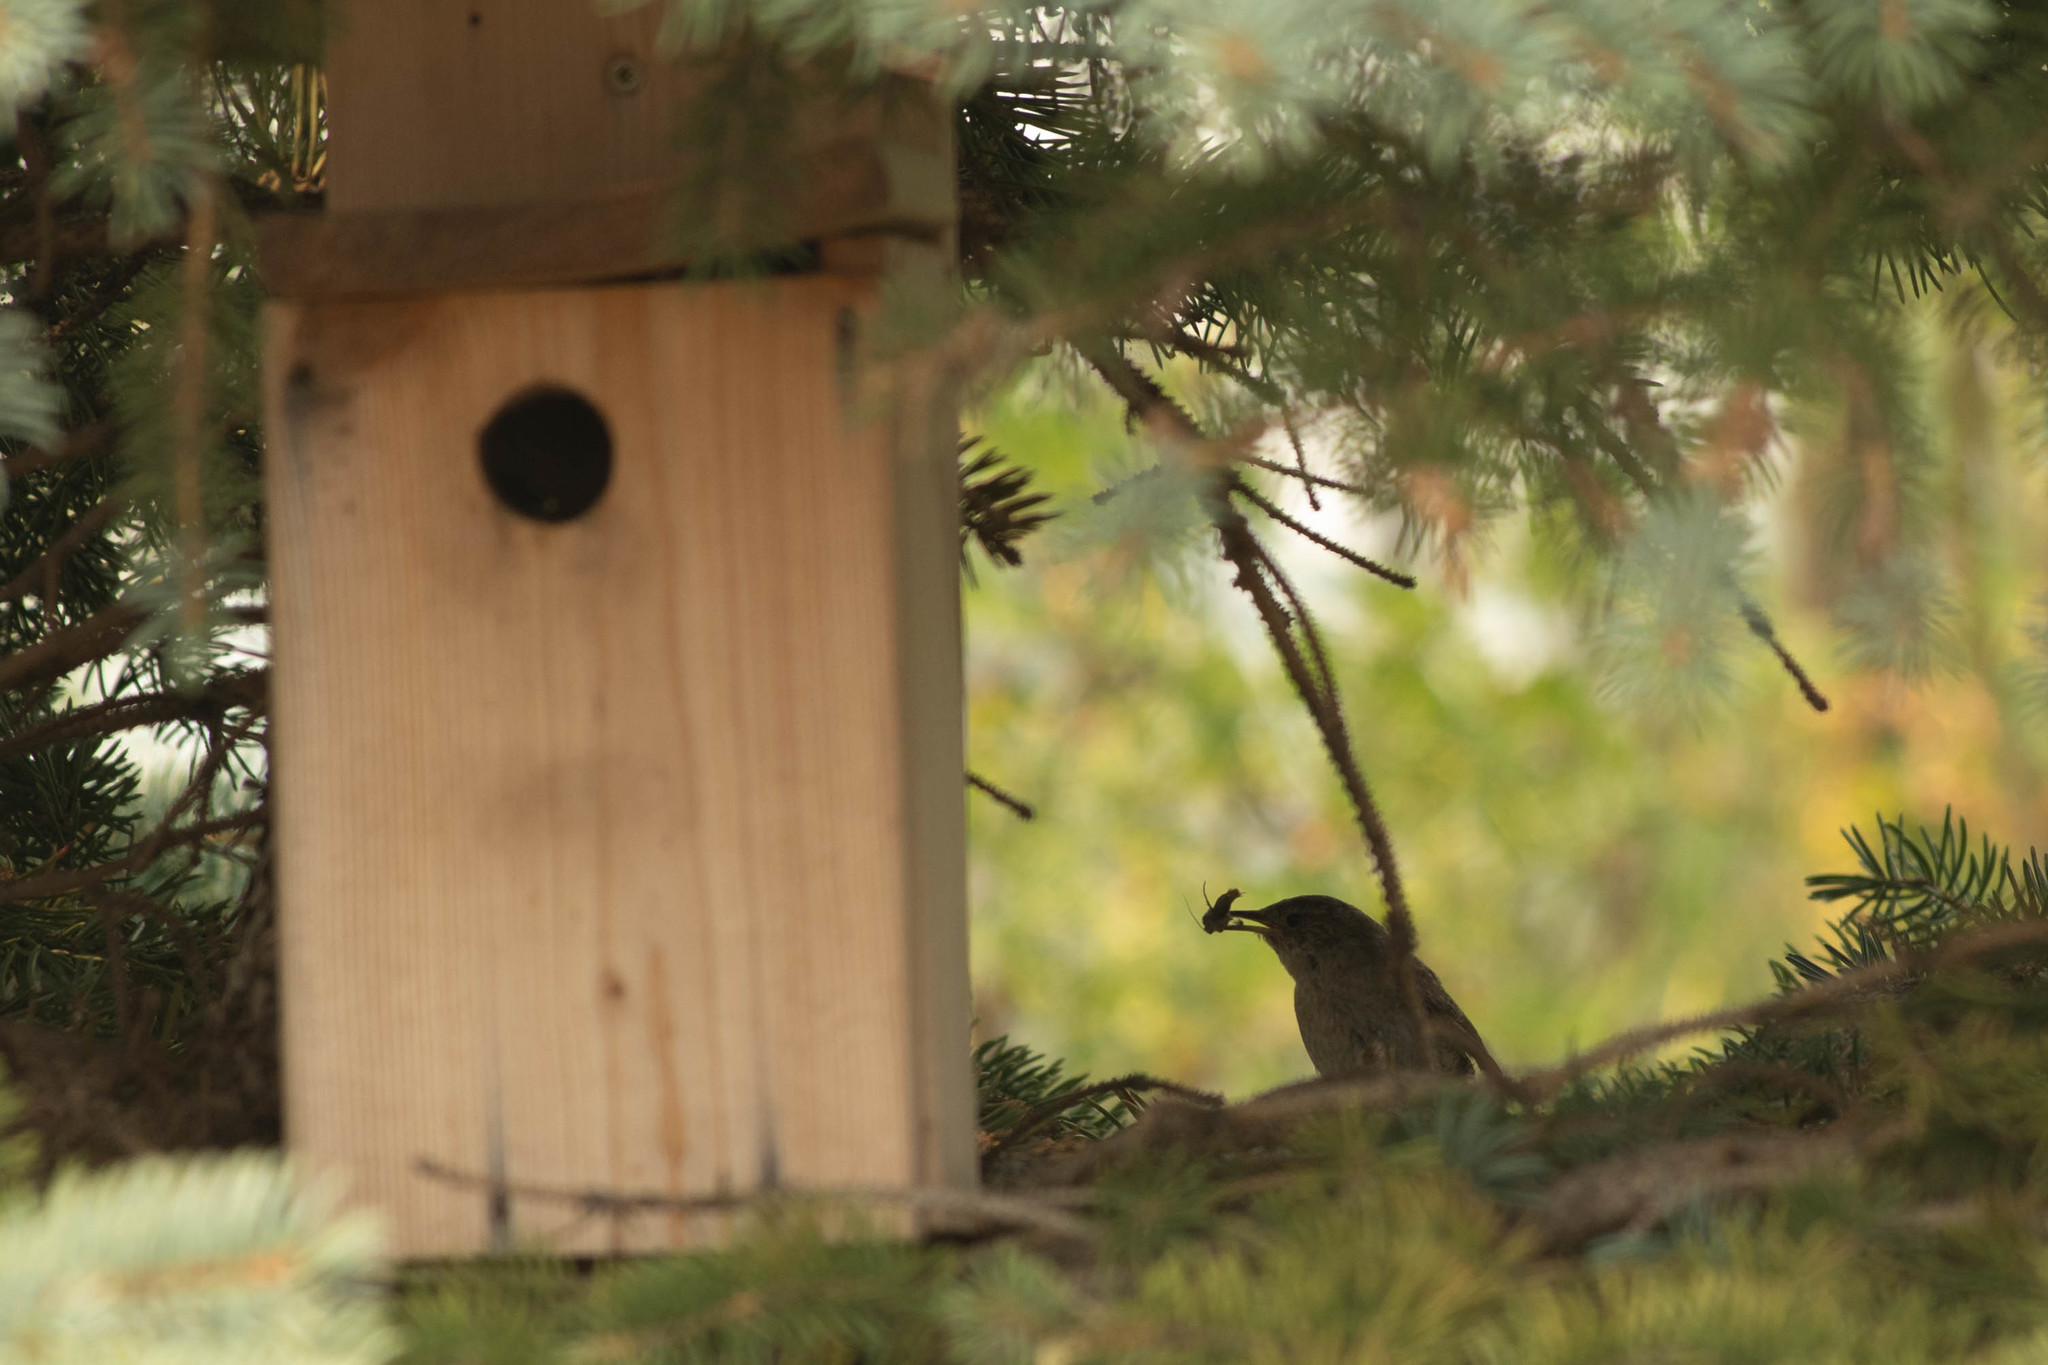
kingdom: Animalia
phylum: Chordata
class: Aves
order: Passeriformes
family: Troglodytidae
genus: Troglodytes
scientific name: Troglodytes aedon
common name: House wren
